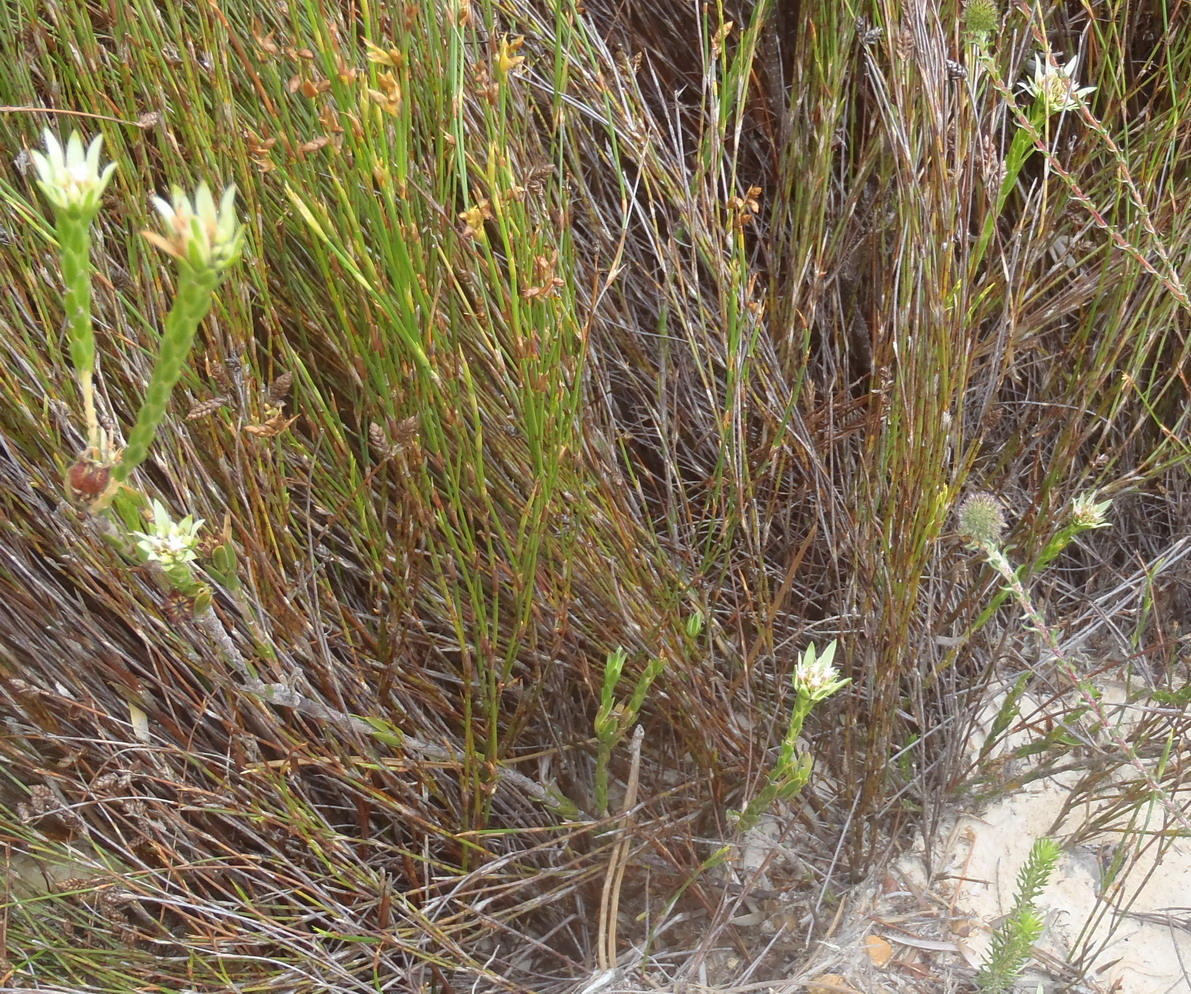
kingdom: Plantae
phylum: Tracheophyta
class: Magnoliopsida
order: Sapindales
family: Rutaceae
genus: Euchaetis
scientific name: Euchaetis longibracteata
